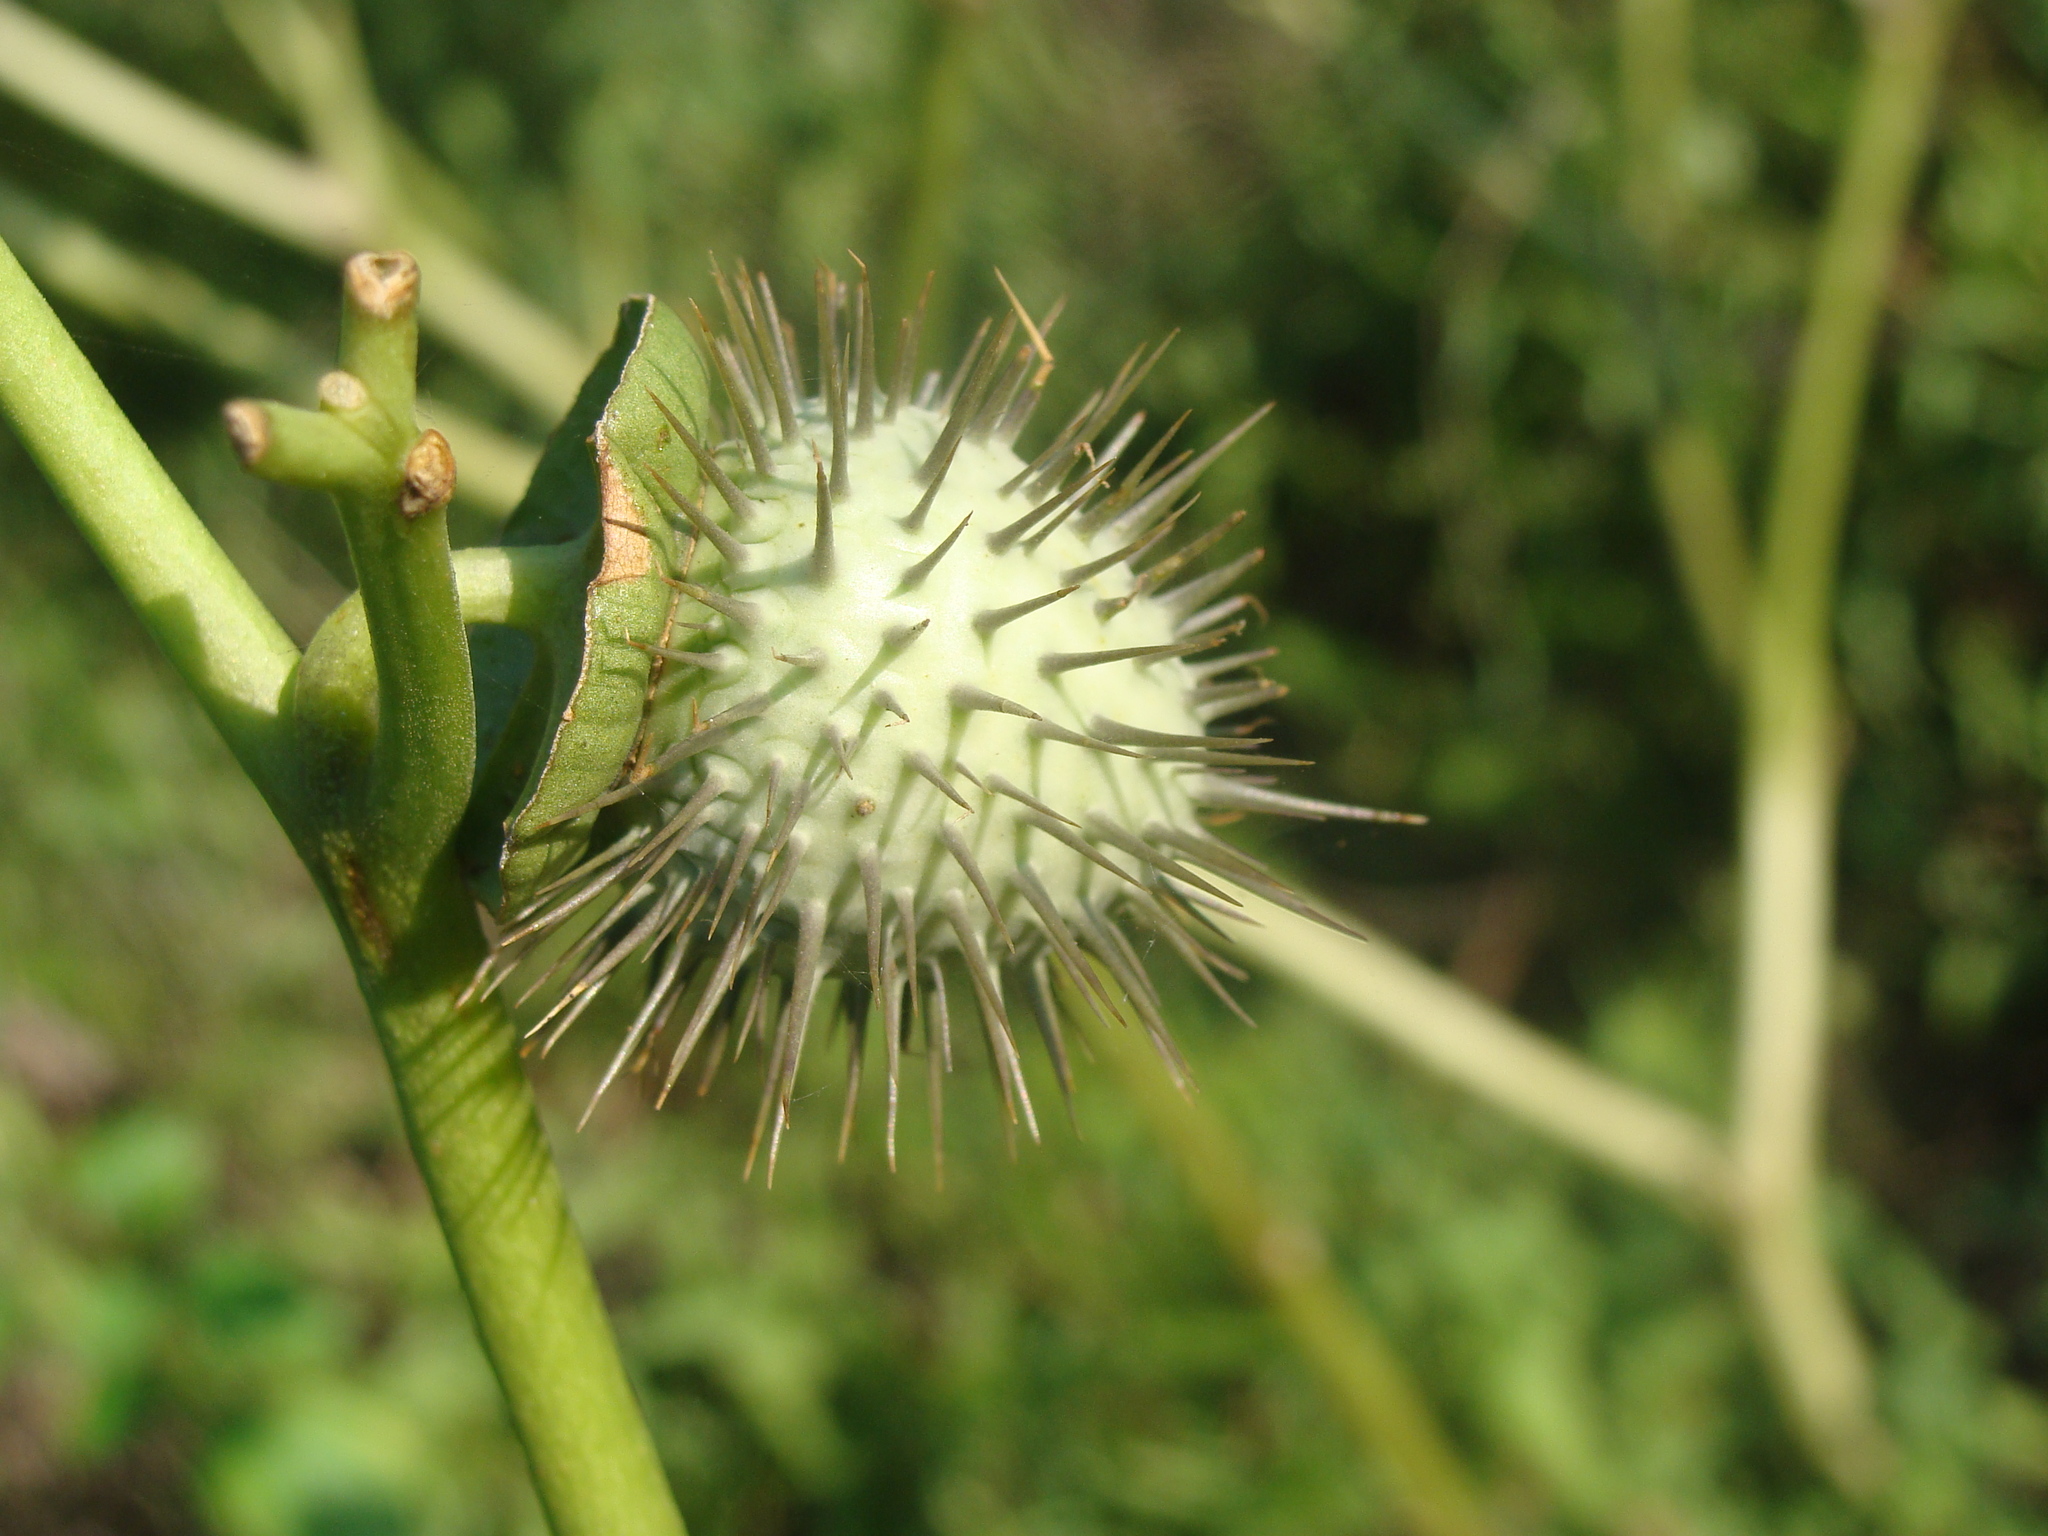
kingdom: Plantae
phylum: Tracheophyta
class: Magnoliopsida
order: Solanales
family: Solanaceae
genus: Datura
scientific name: Datura innoxia
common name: Downy thorn-apple
